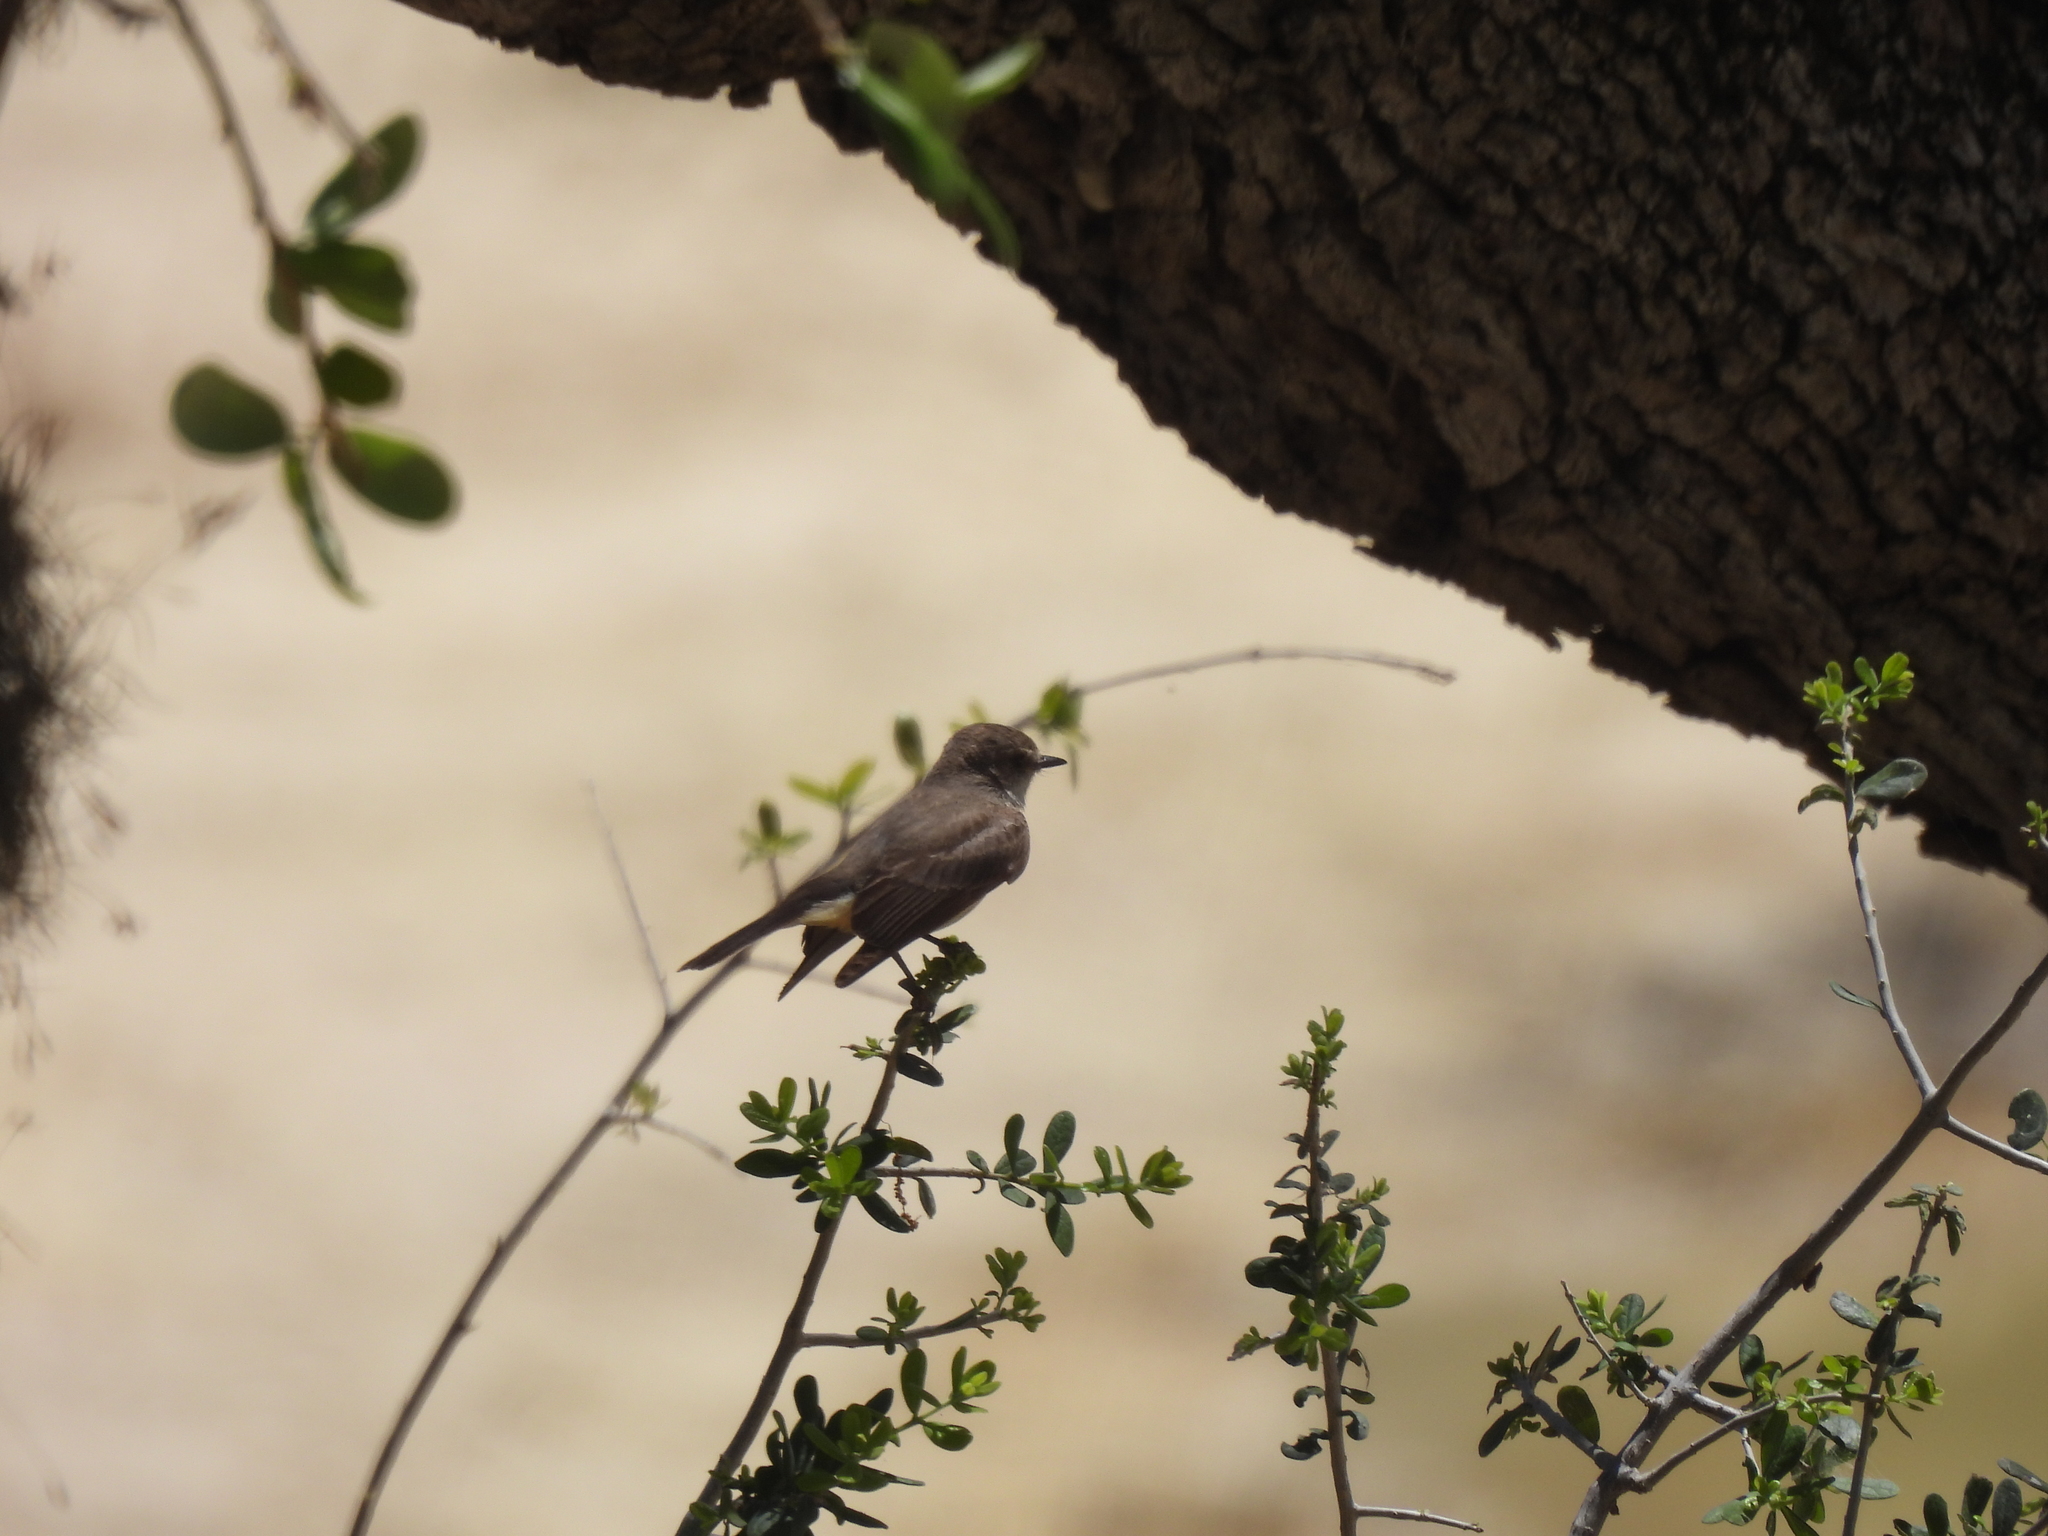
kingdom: Animalia
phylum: Chordata
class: Aves
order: Passeriformes
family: Tyrannidae
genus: Pyrocephalus
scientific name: Pyrocephalus rubinus
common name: Vermilion flycatcher
